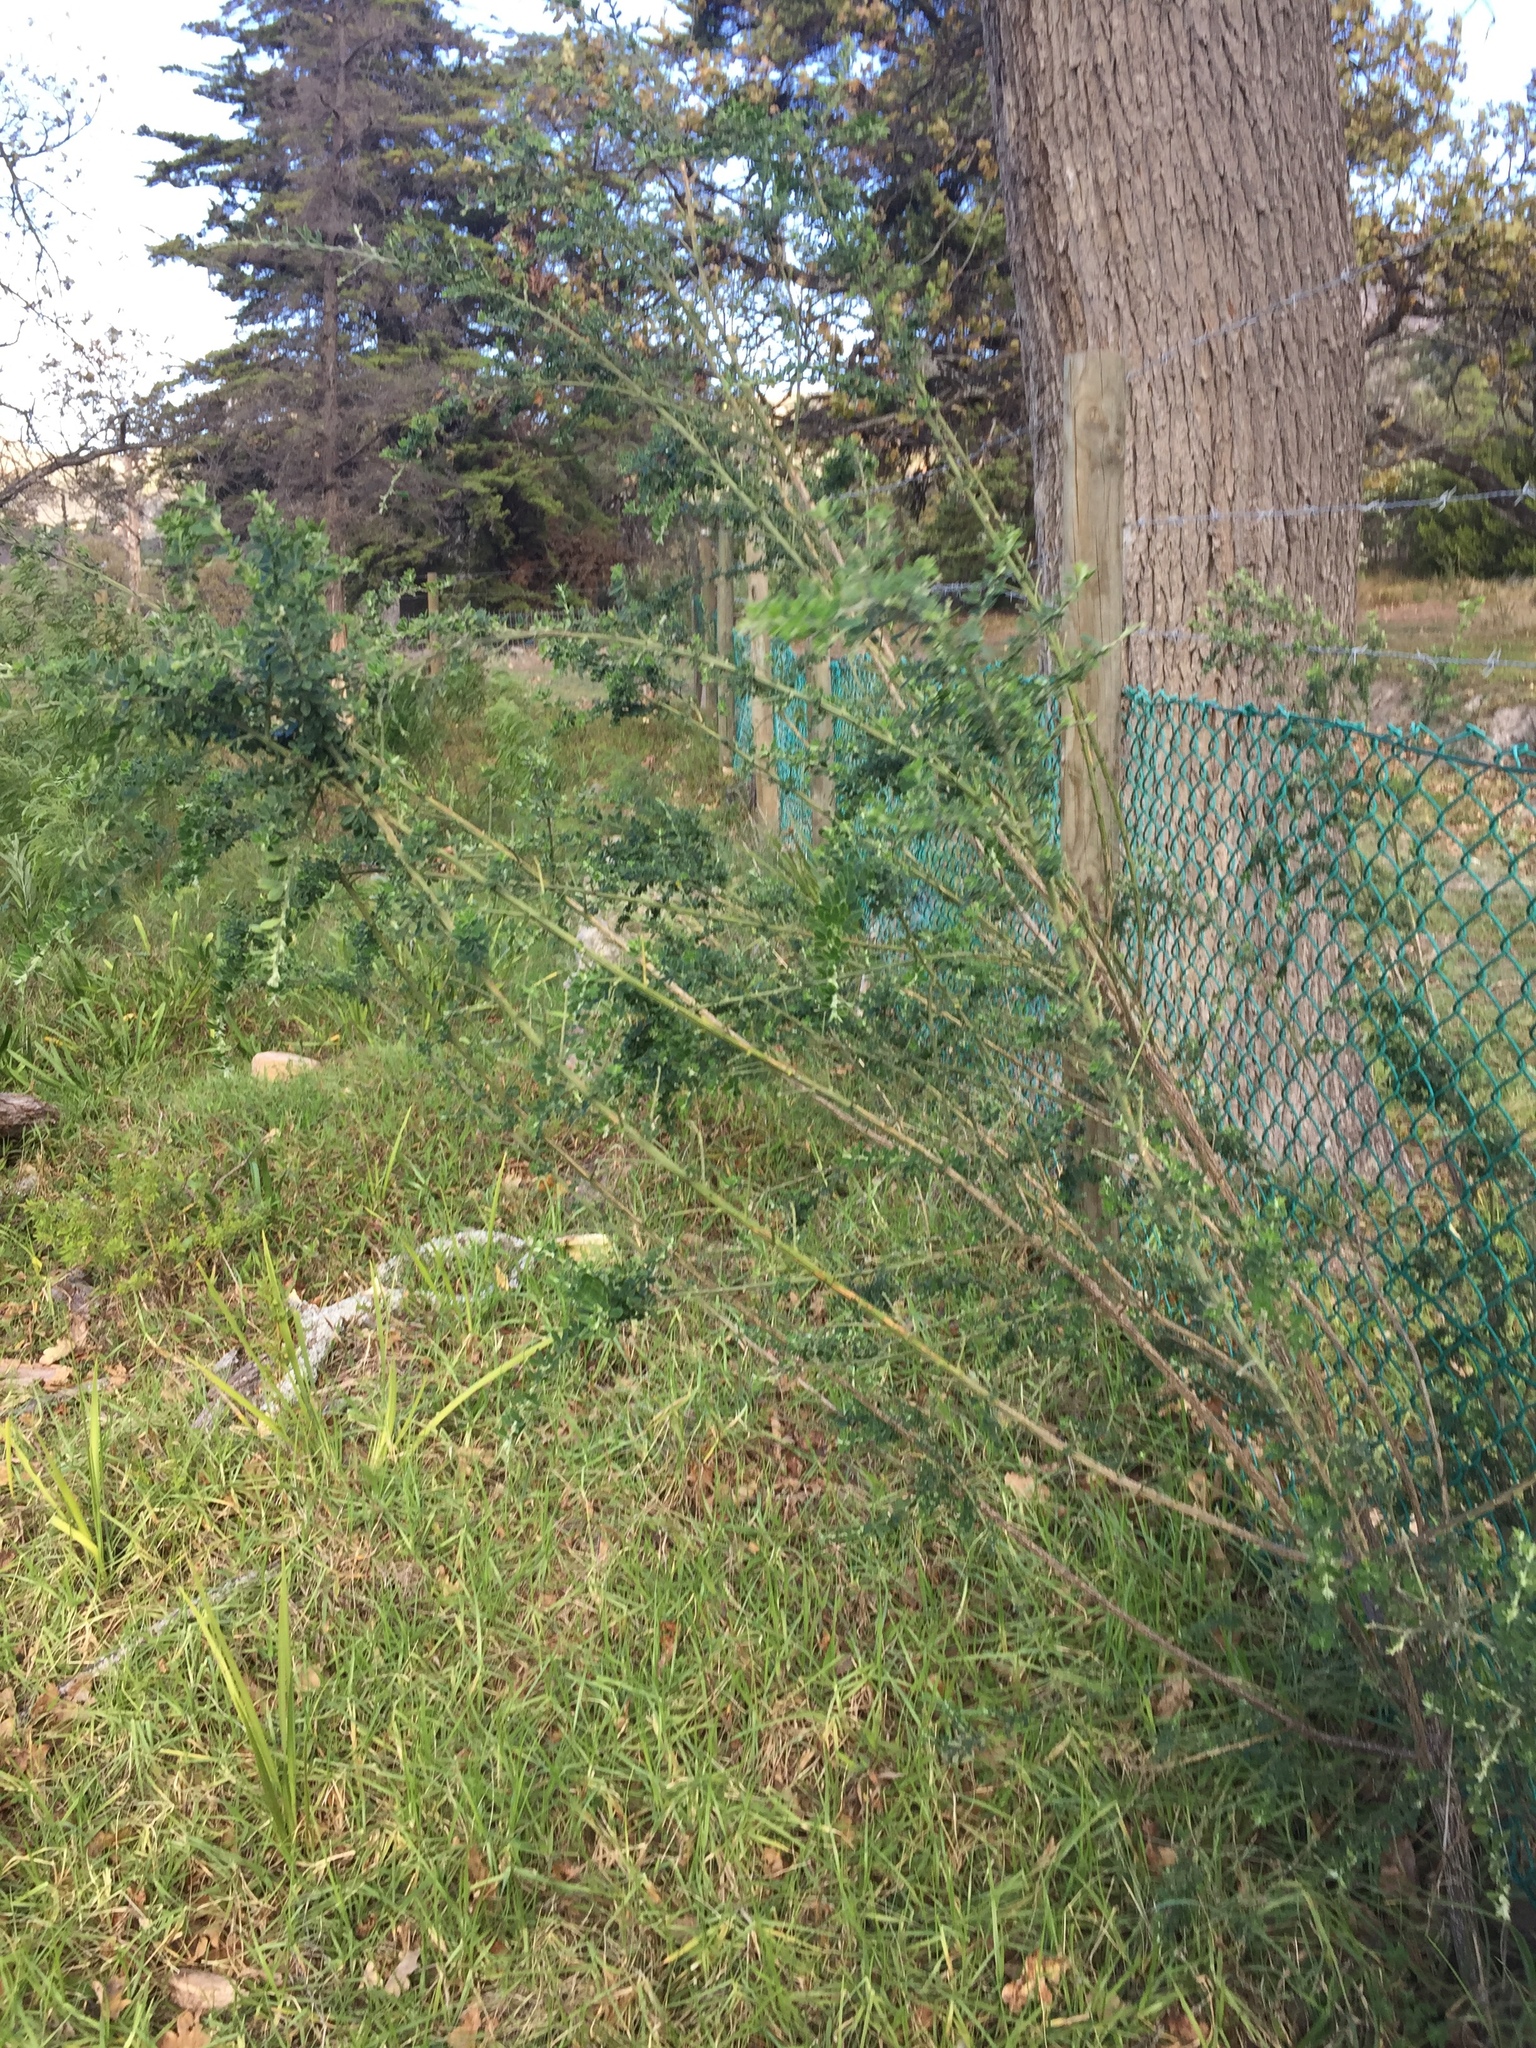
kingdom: Plantae
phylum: Tracheophyta
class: Magnoliopsida
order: Fabales
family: Fabaceae
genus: Genista
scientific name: Genista monspessulana
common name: Montpellier broom
